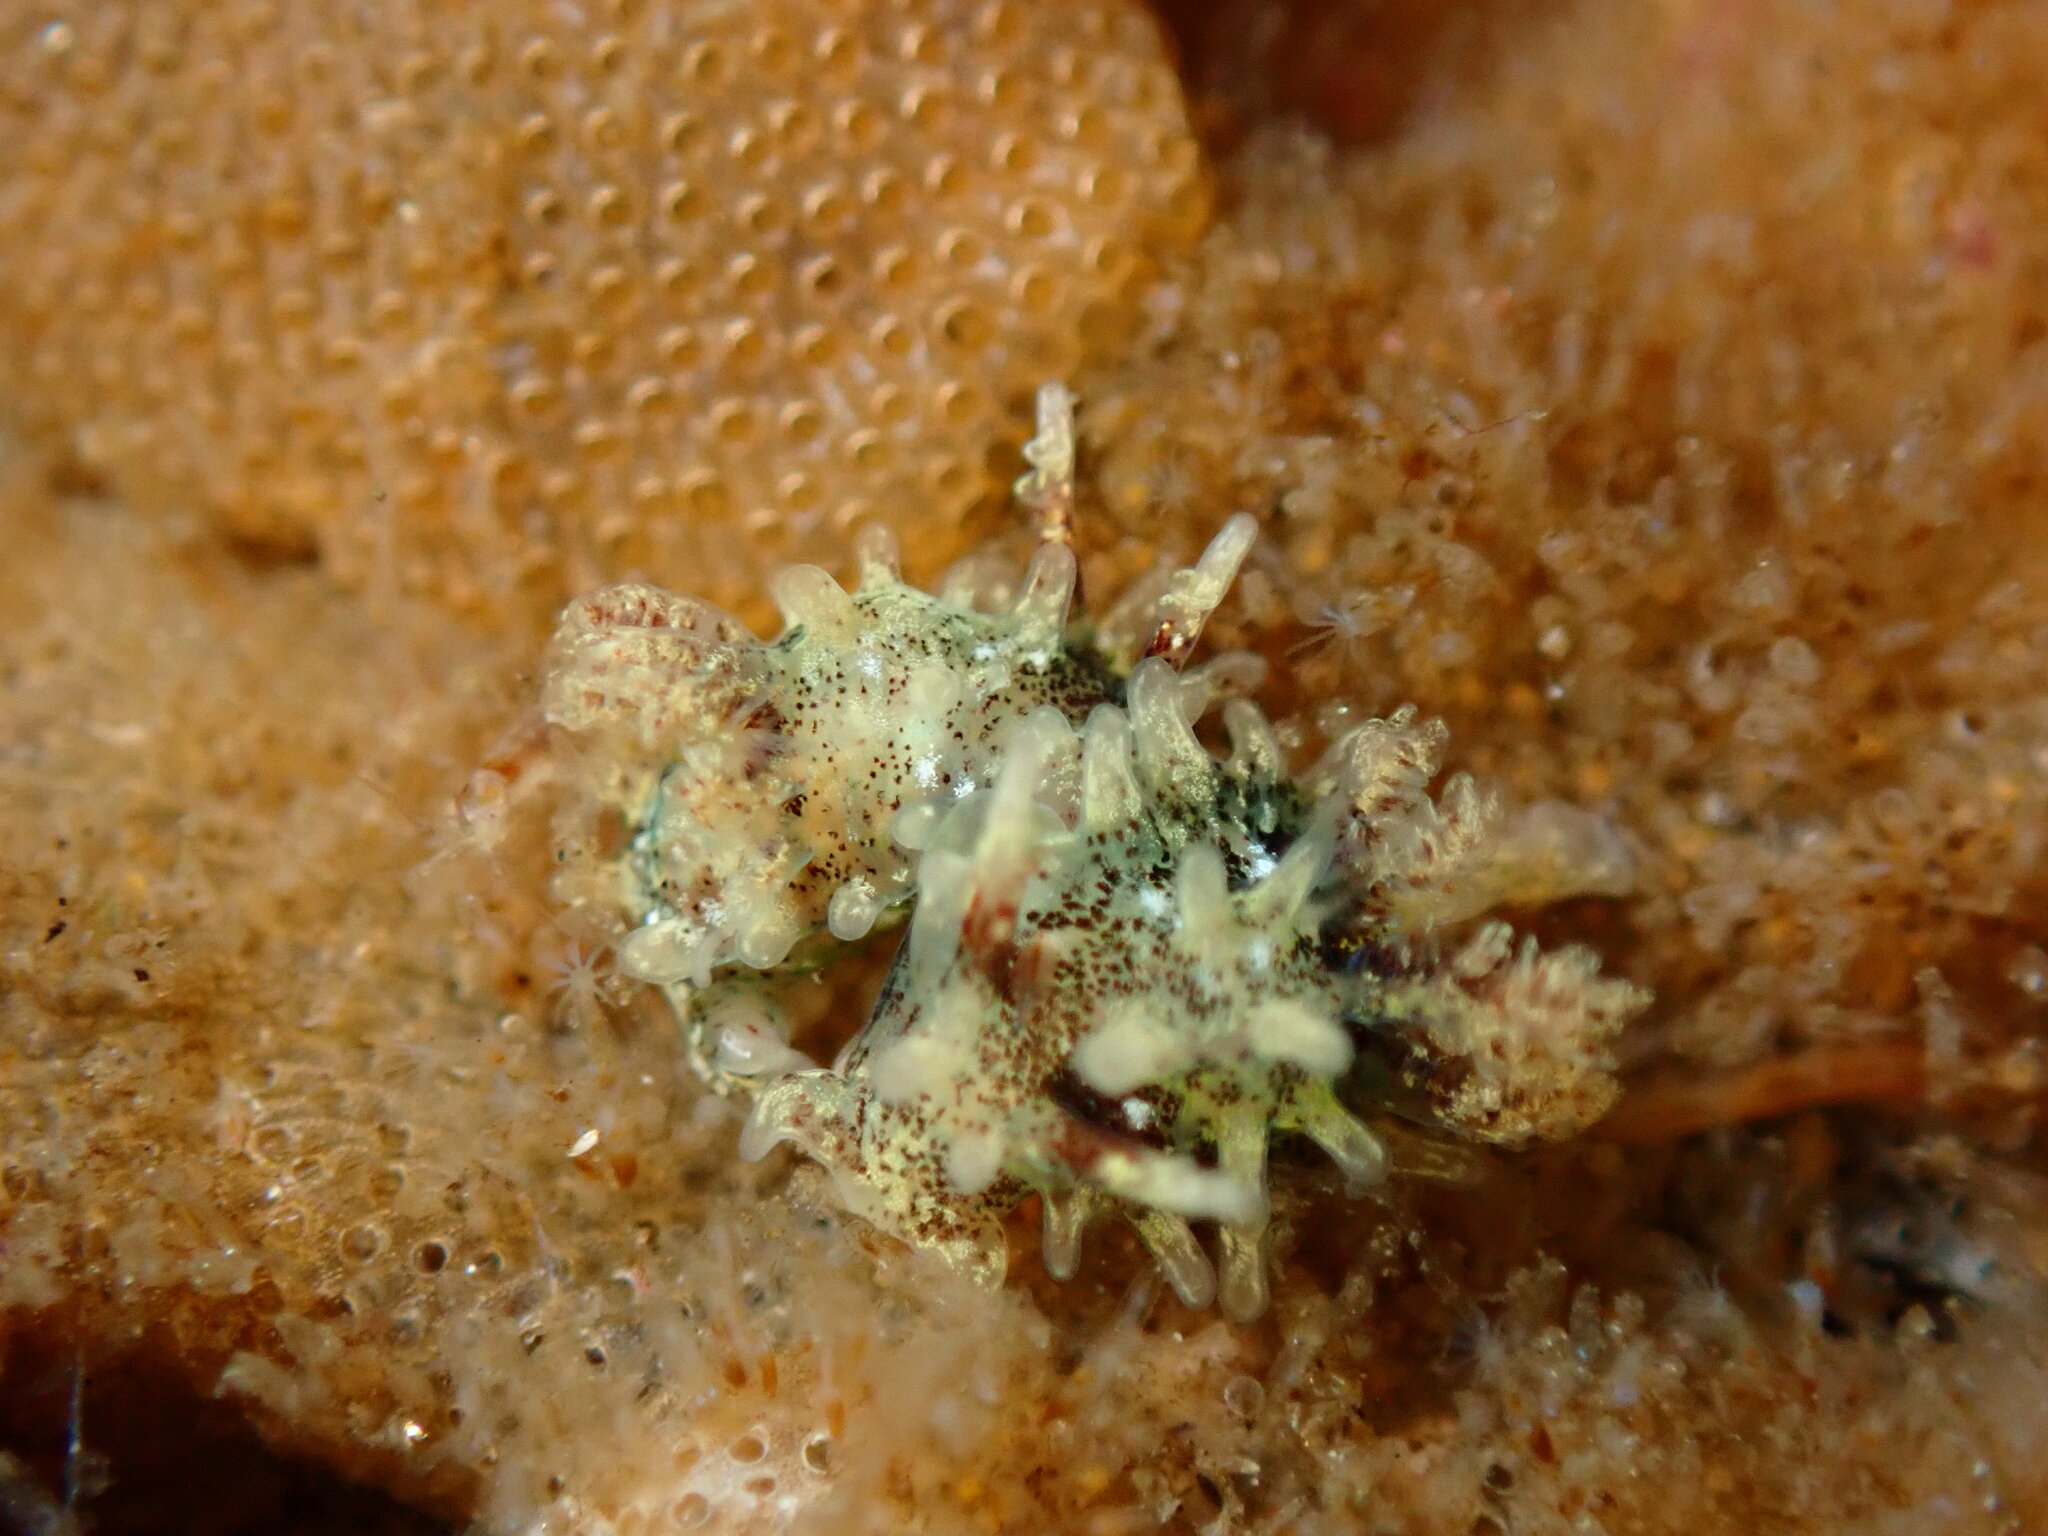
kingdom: Animalia
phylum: Mollusca
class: Gastropoda
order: Nudibranchia
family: Goniodorididae
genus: Okenia
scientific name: Okenia
